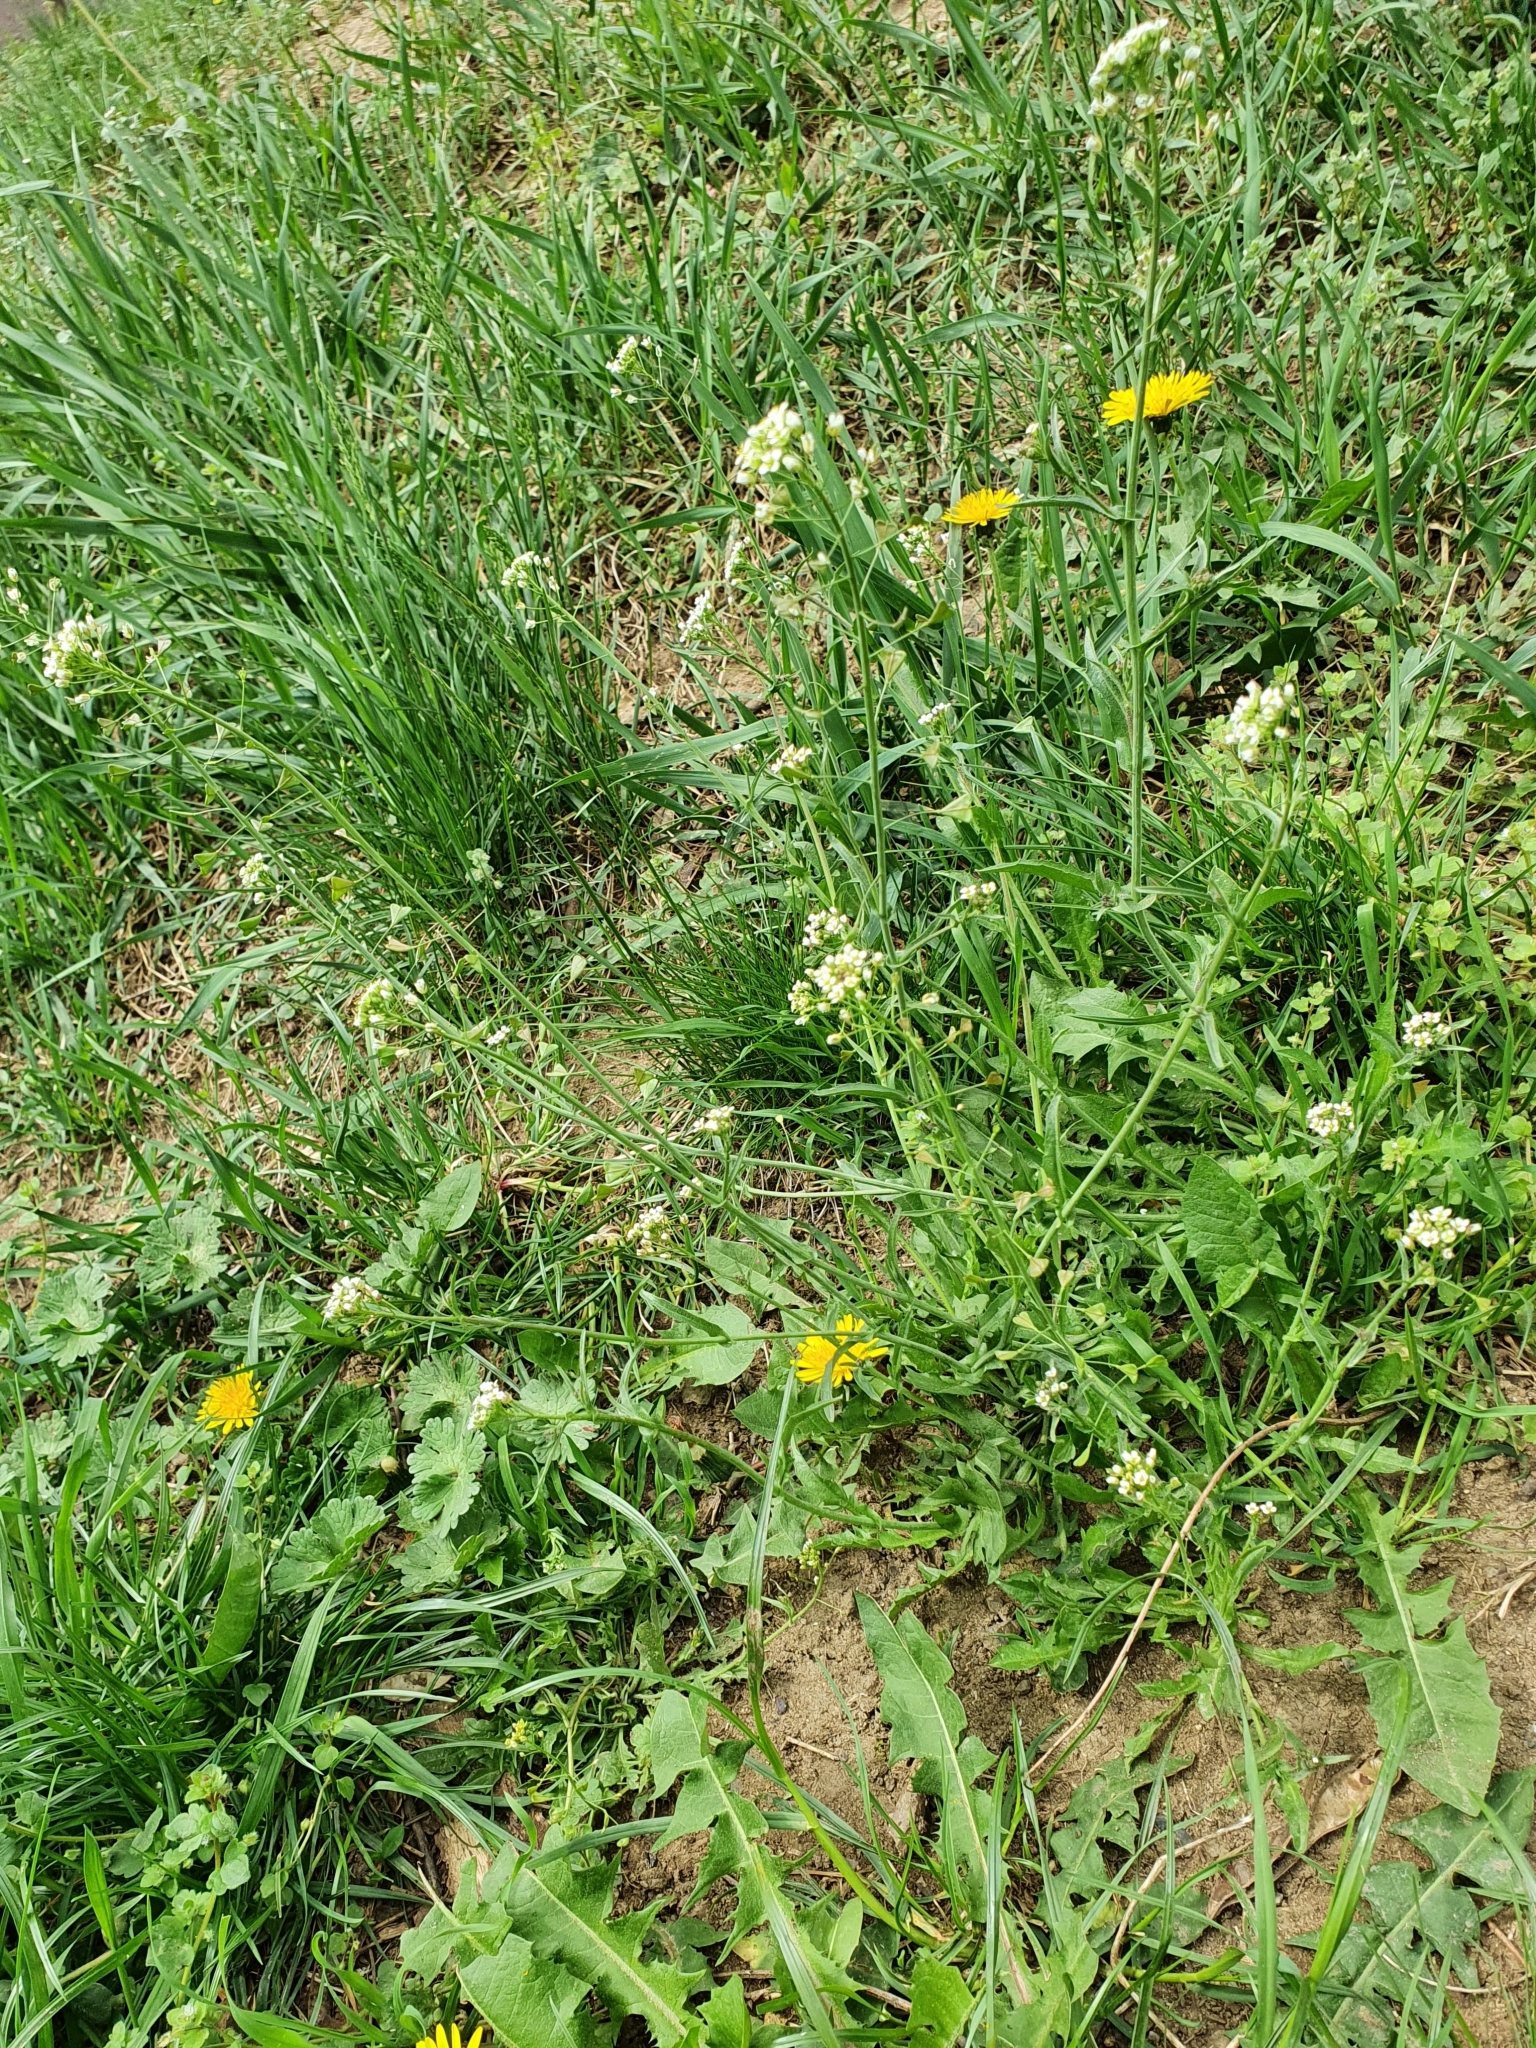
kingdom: Plantae
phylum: Tracheophyta
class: Magnoliopsida
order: Brassicales
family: Brassicaceae
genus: Capsella
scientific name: Capsella bursa-pastoris
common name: Shepherd's purse
